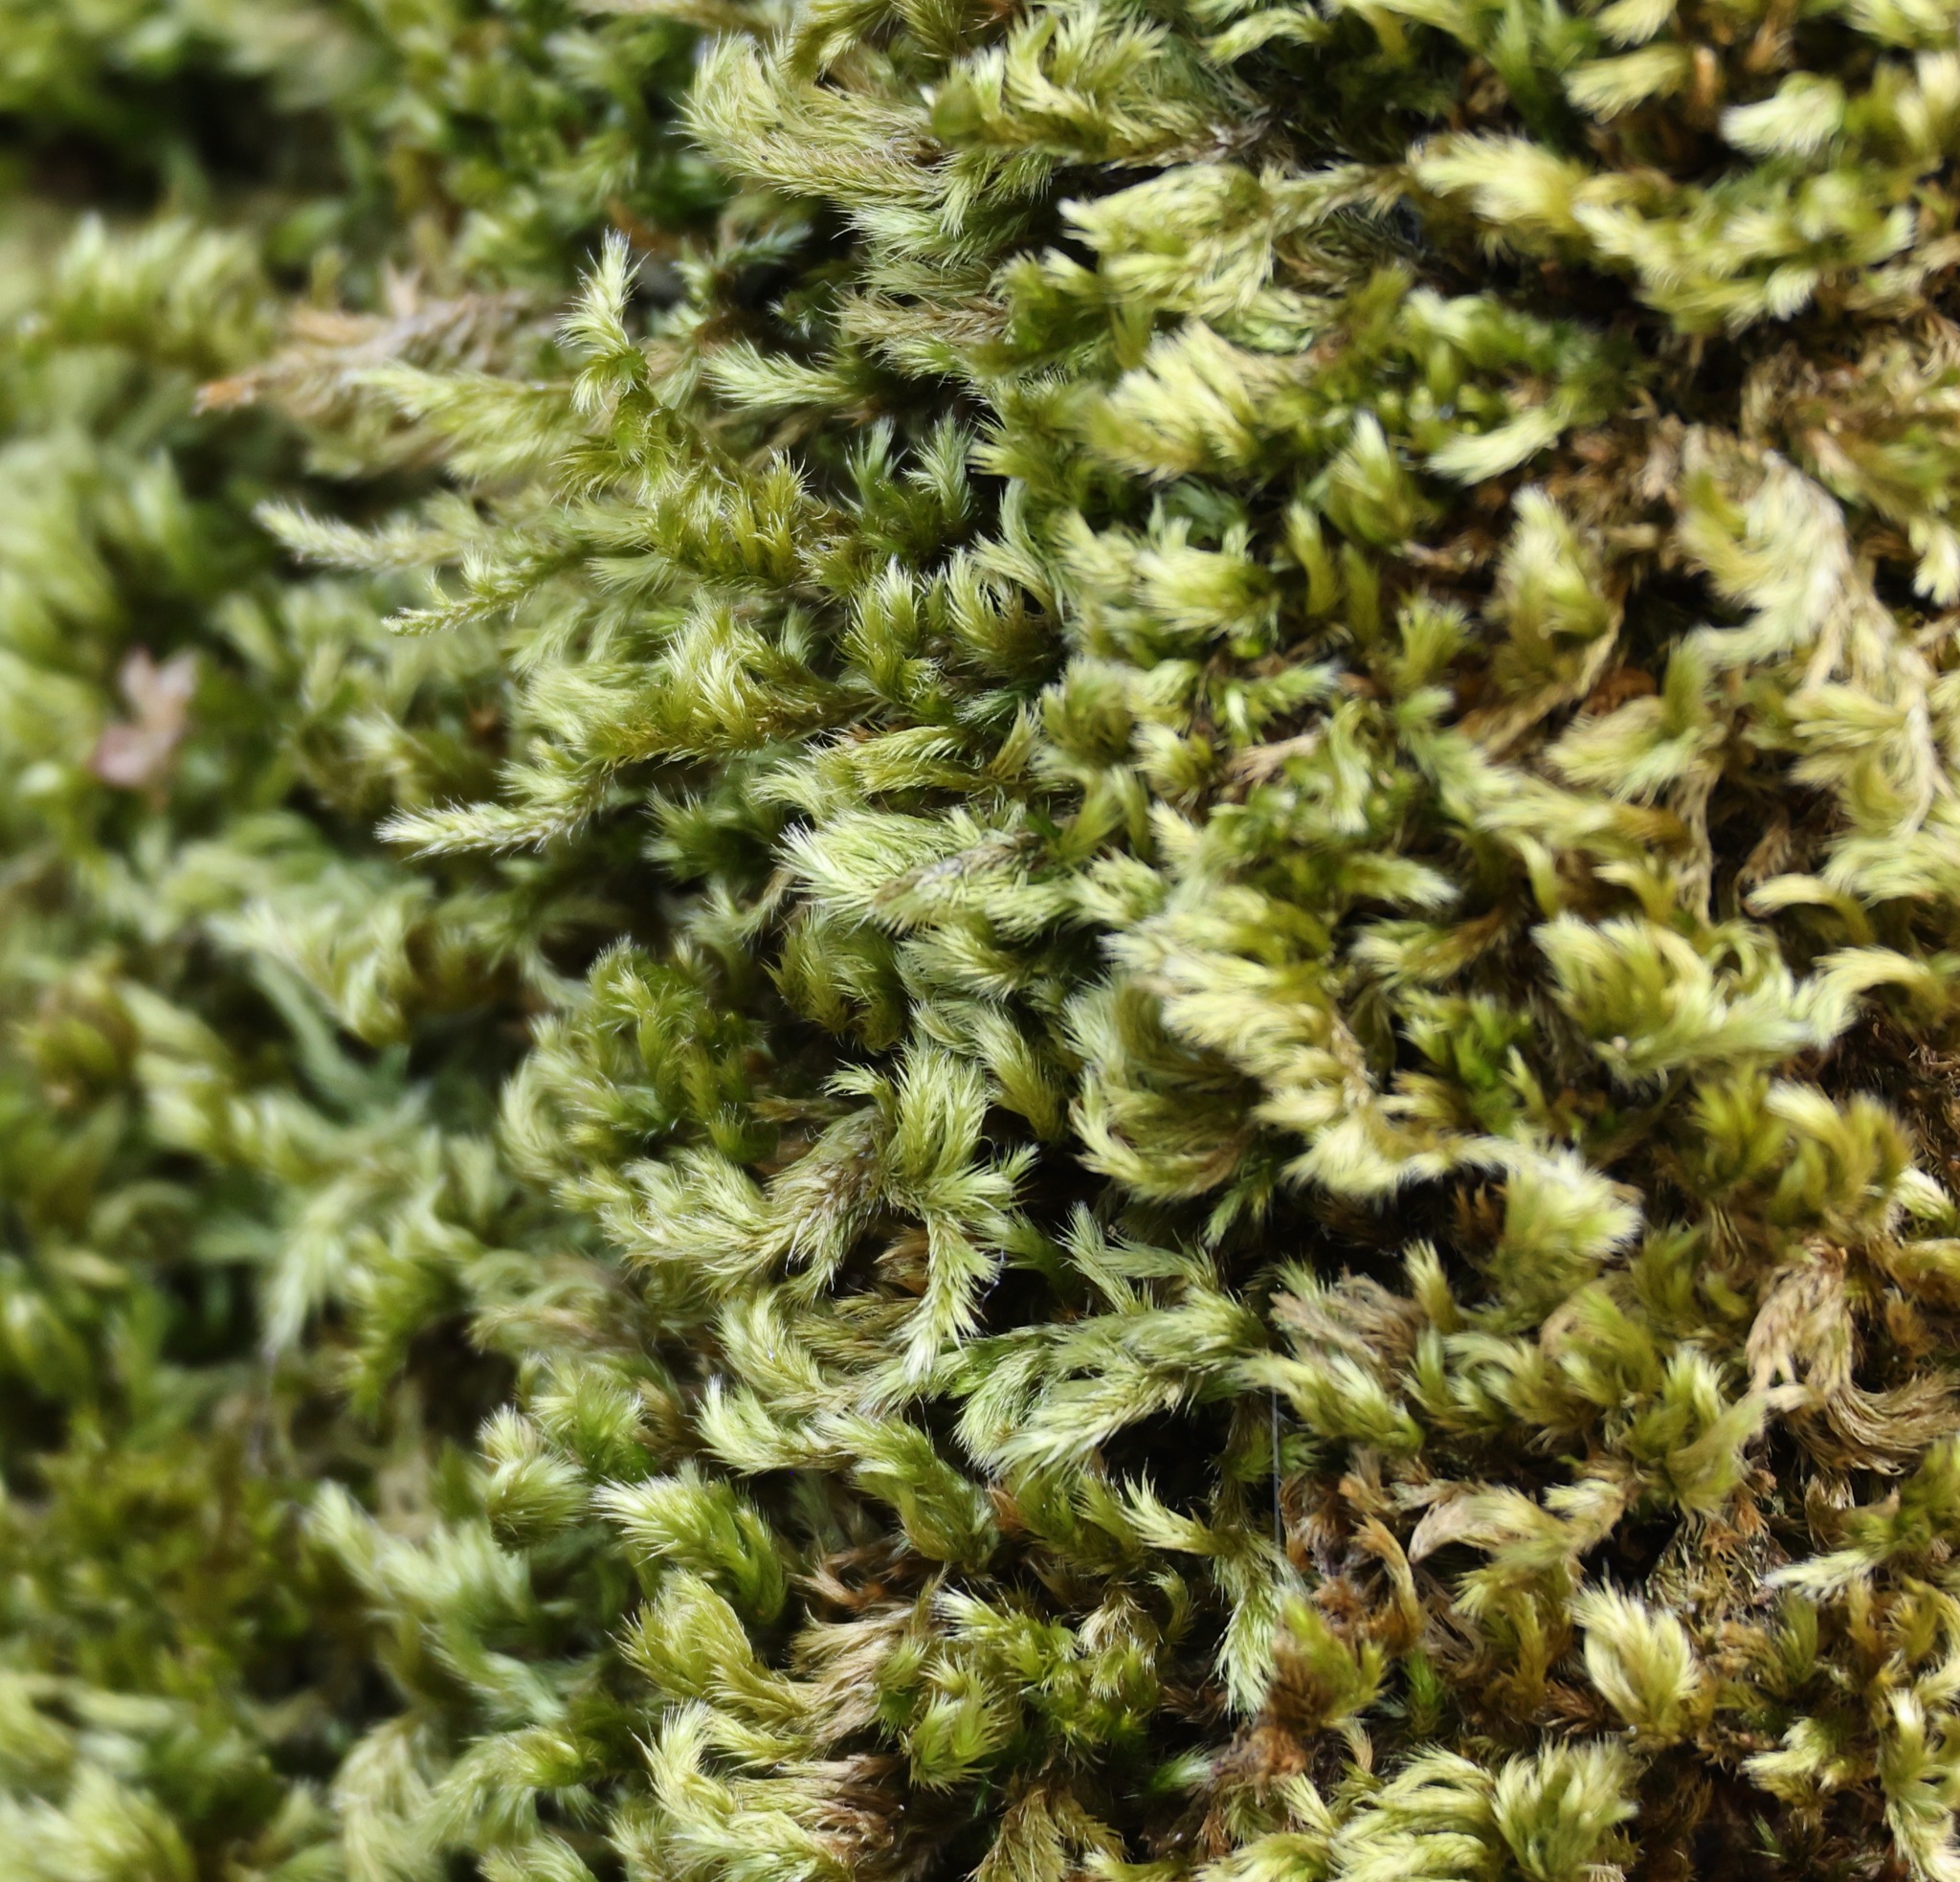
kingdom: Plantae
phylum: Bryophyta
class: Bryopsida
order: Hypnales
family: Brachytheciaceae
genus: Homalothecium
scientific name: Homalothecium sericeum
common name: Silky wall feather-moss
